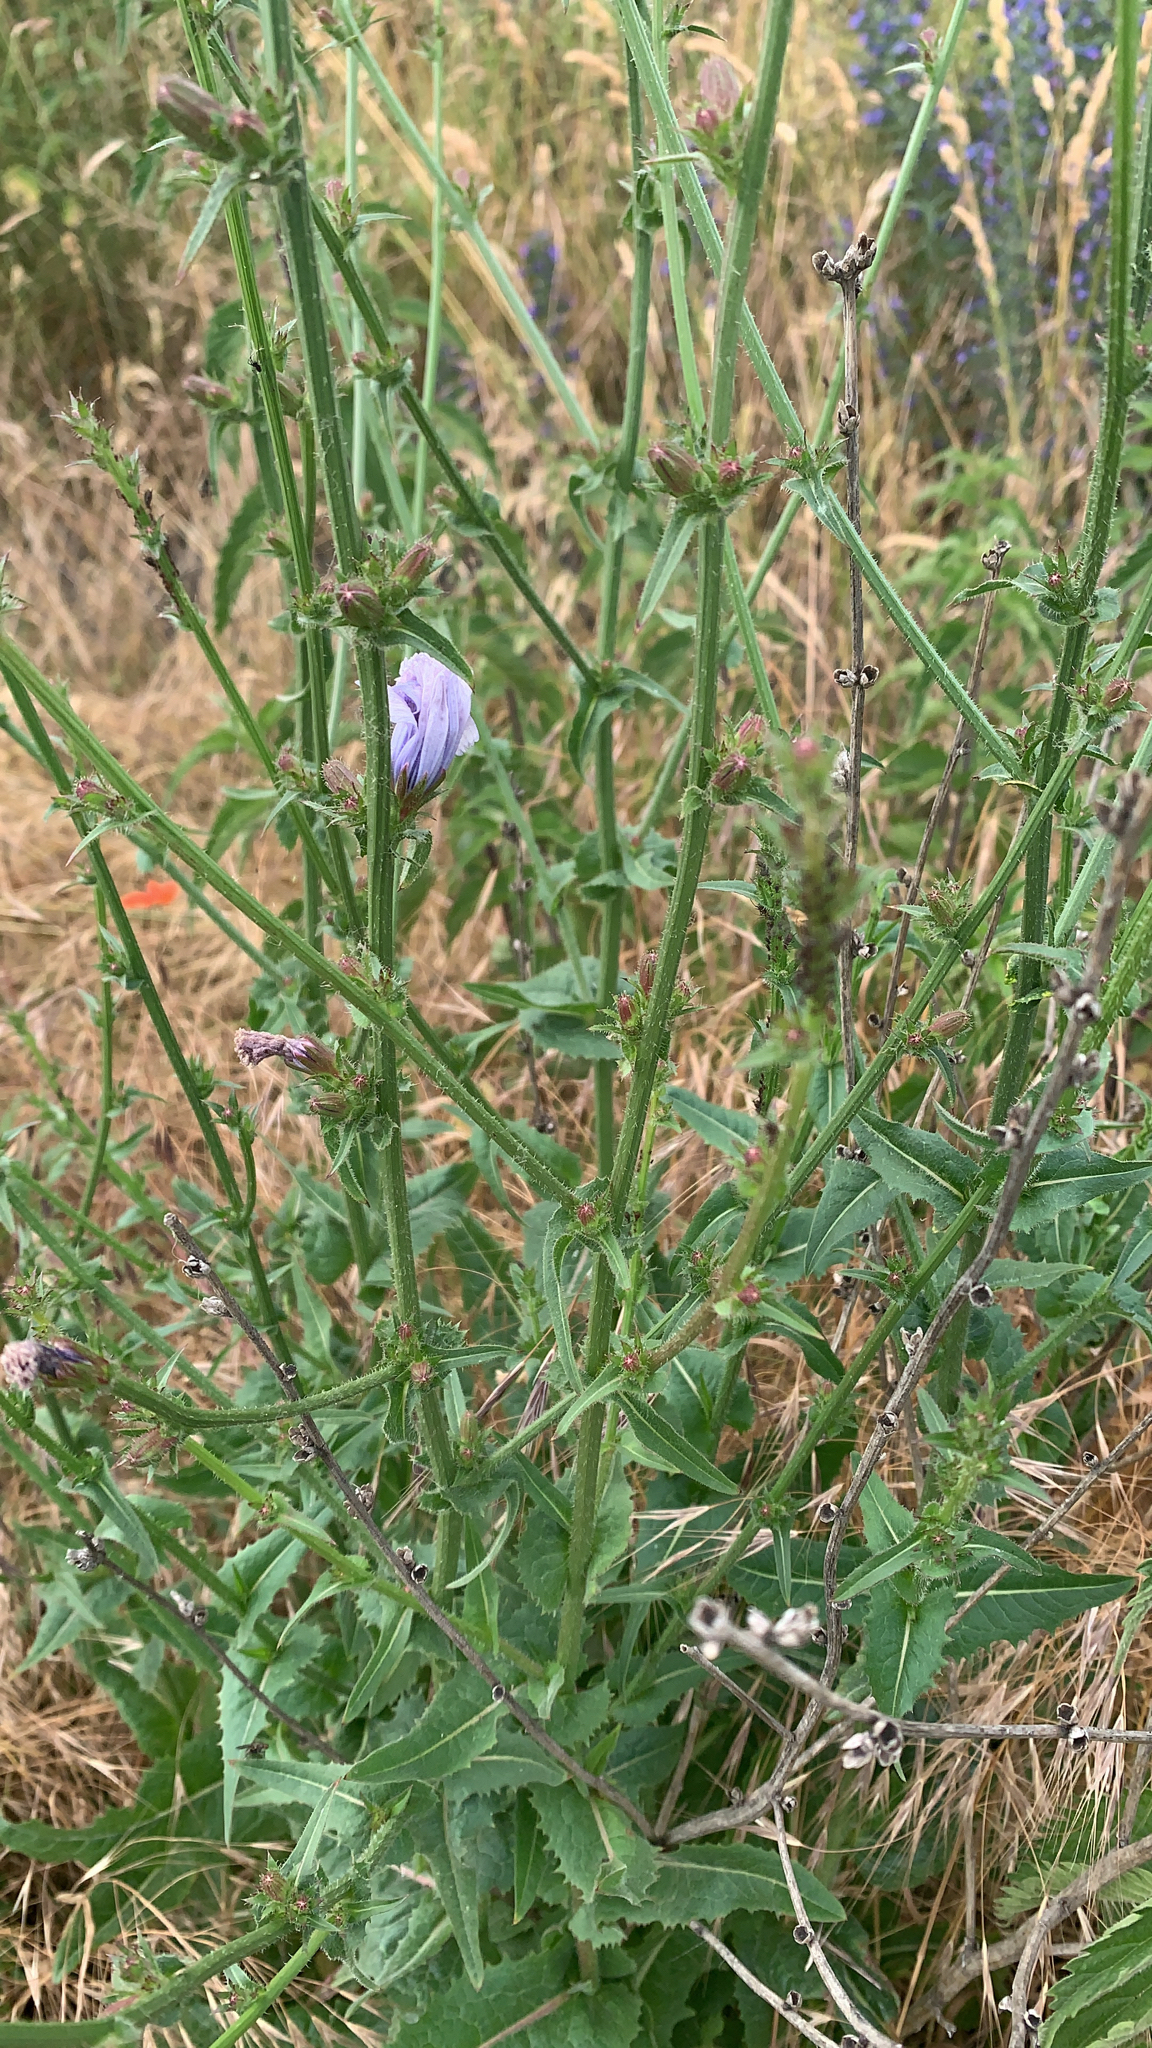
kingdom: Plantae
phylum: Tracheophyta
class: Magnoliopsida
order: Asterales
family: Asteraceae
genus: Cichorium
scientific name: Cichorium intybus
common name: Chicory
